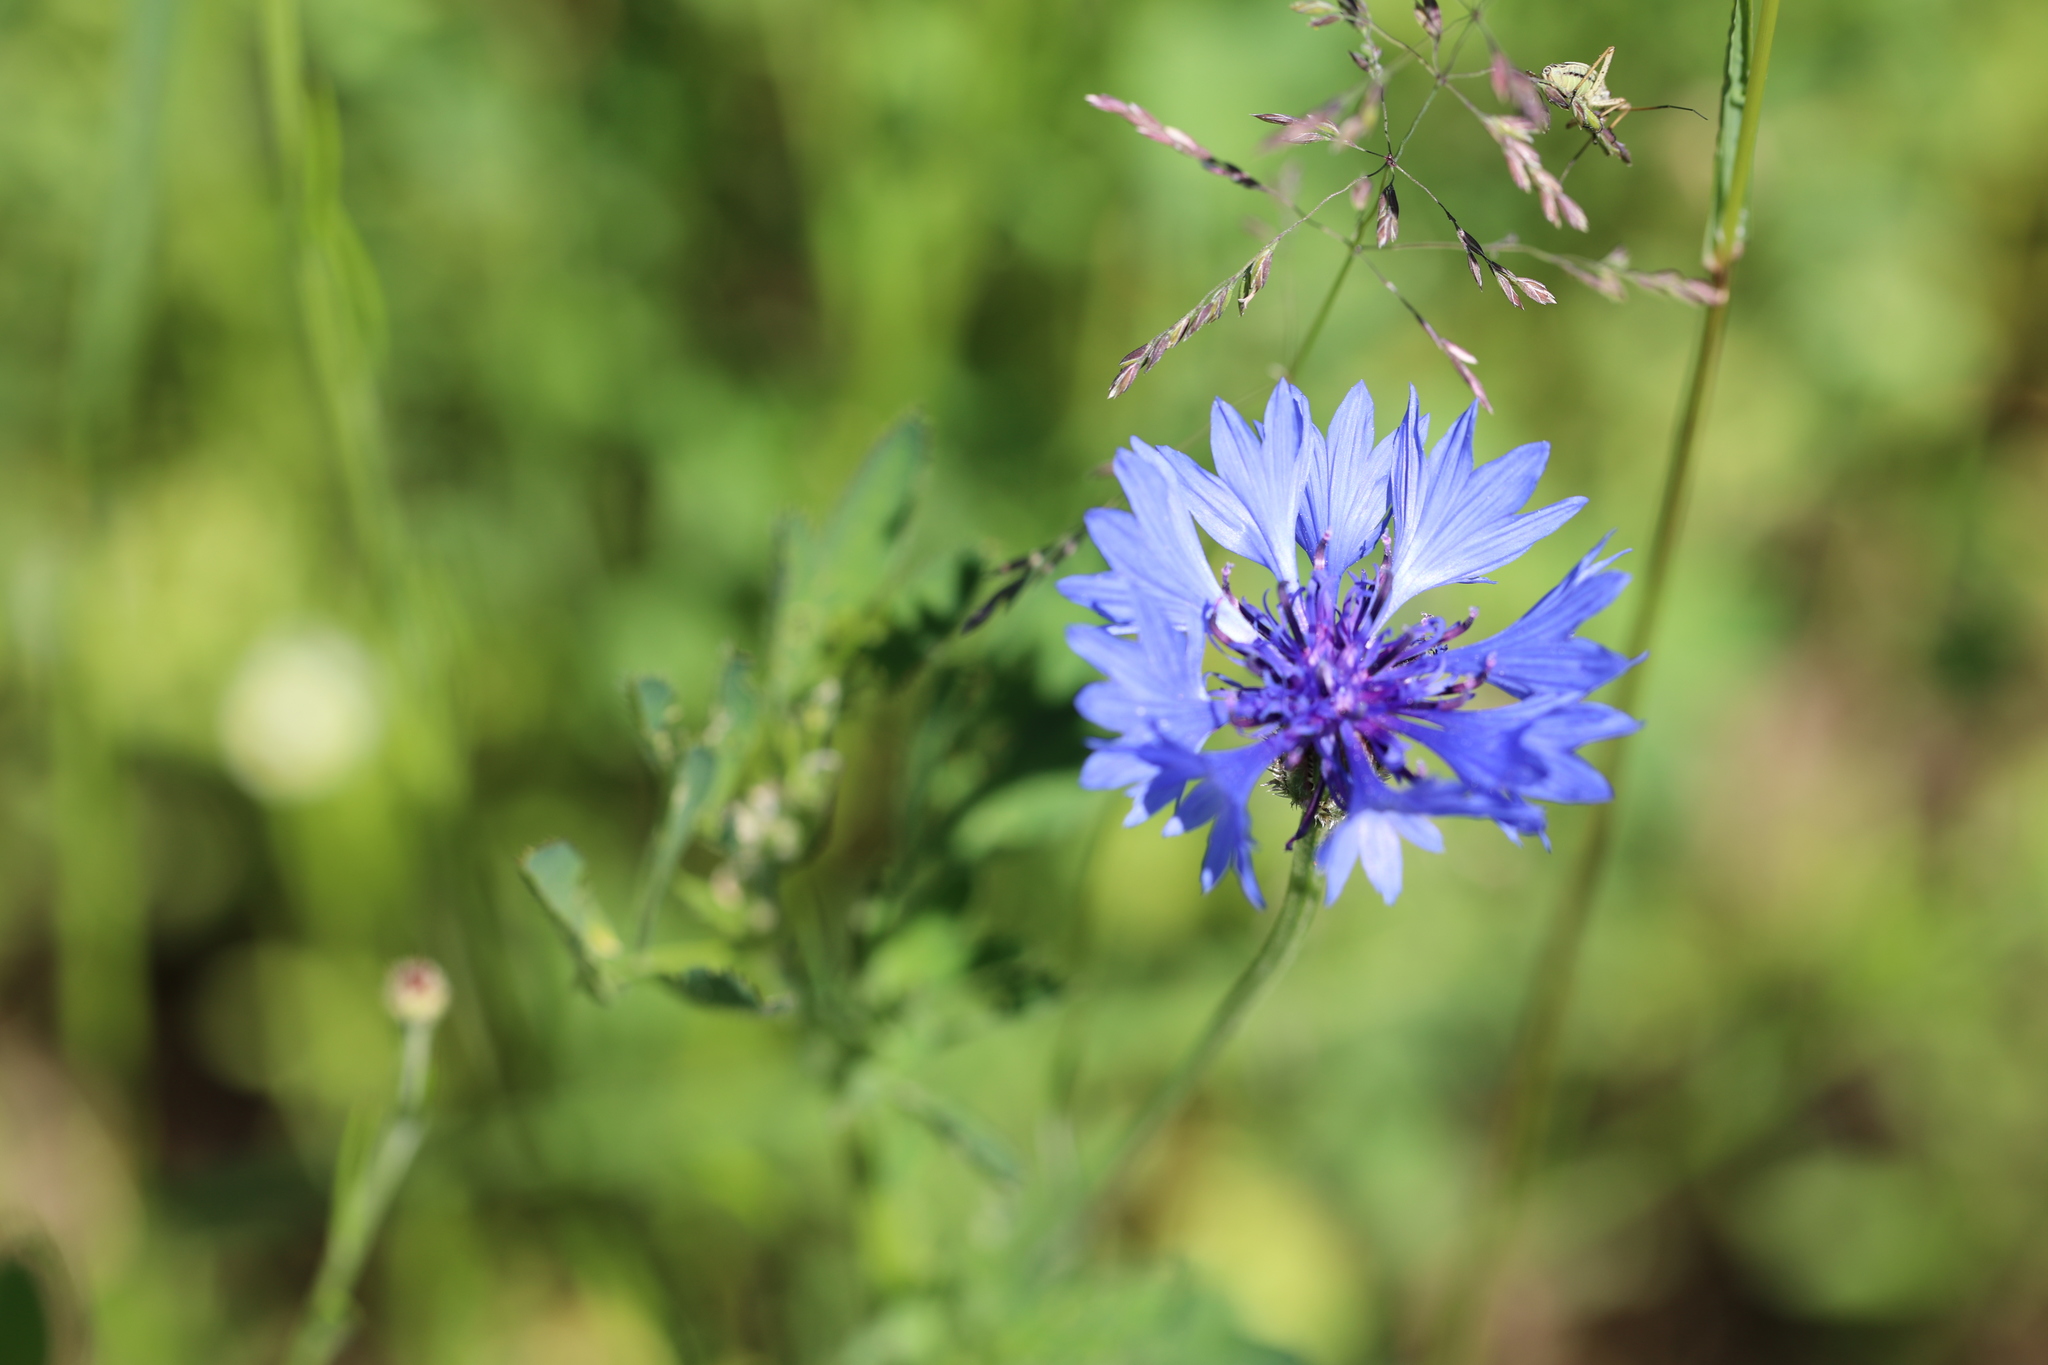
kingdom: Plantae
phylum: Tracheophyta
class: Magnoliopsida
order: Asterales
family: Asteraceae
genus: Centaurea
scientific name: Centaurea cyanus
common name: Cornflower
